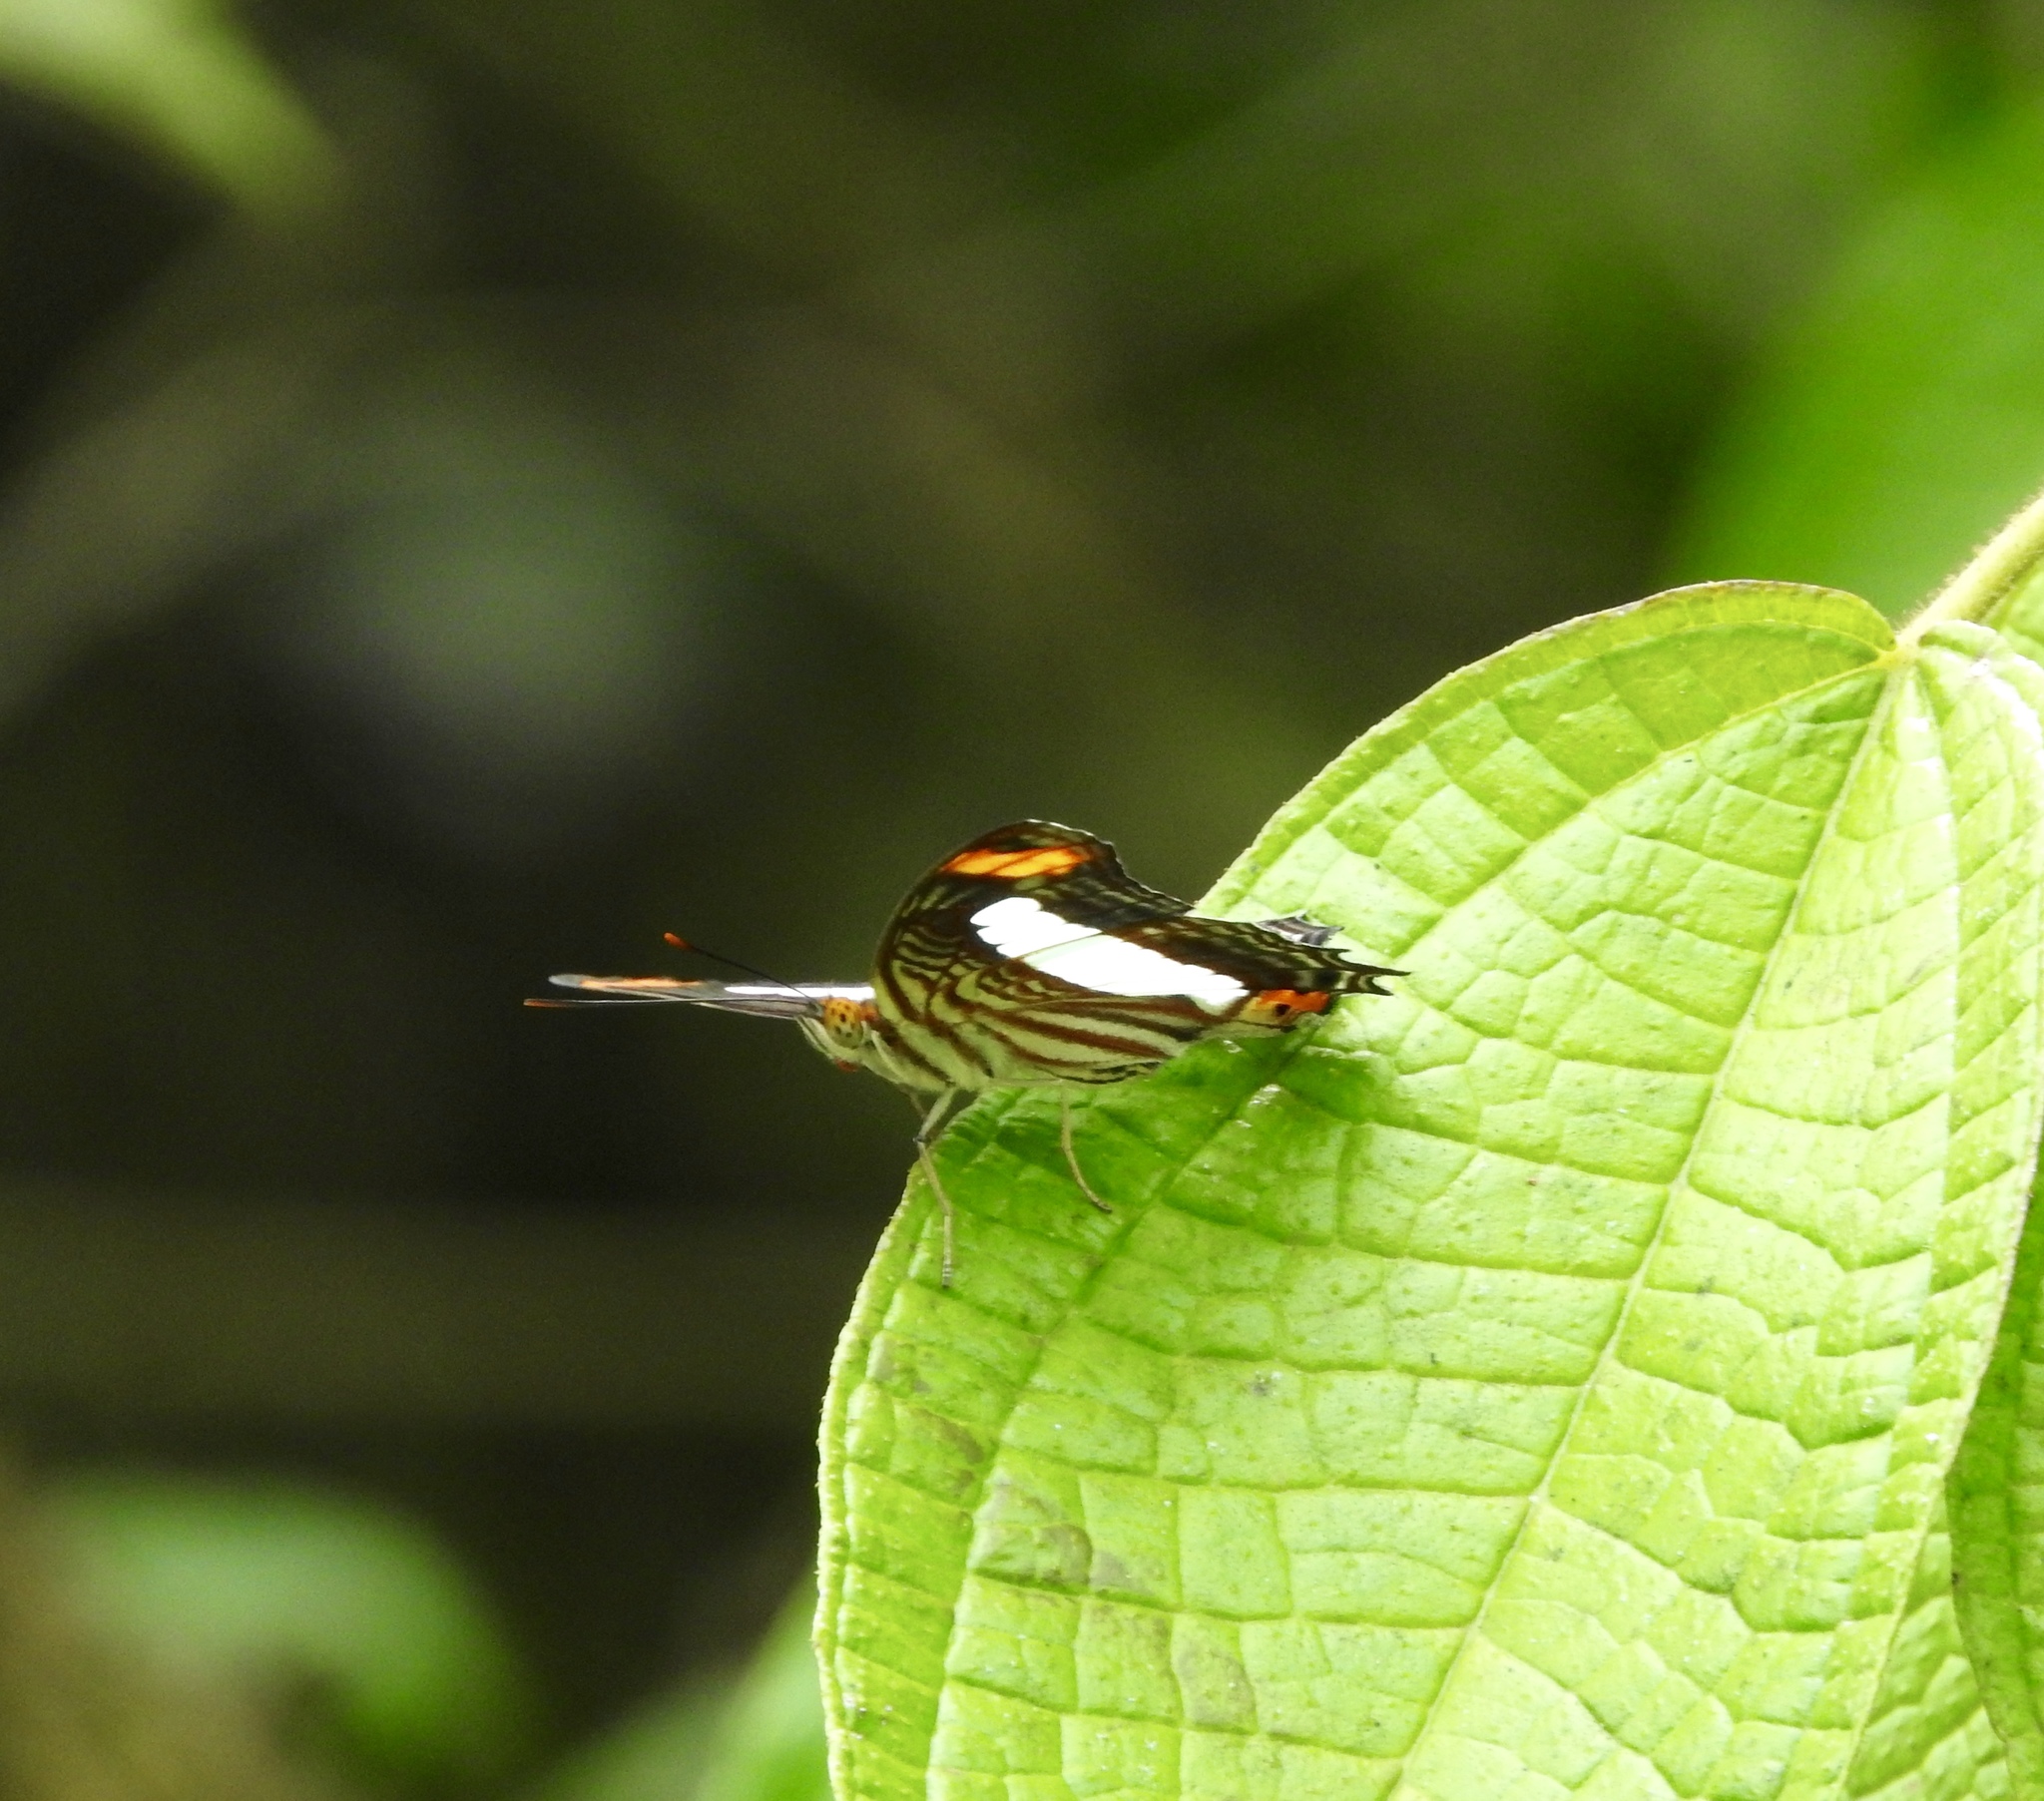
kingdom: Animalia
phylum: Arthropoda
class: Insecta
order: Lepidoptera
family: Nymphalidae
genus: Limenitis
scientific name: Limenitis iphiclus
